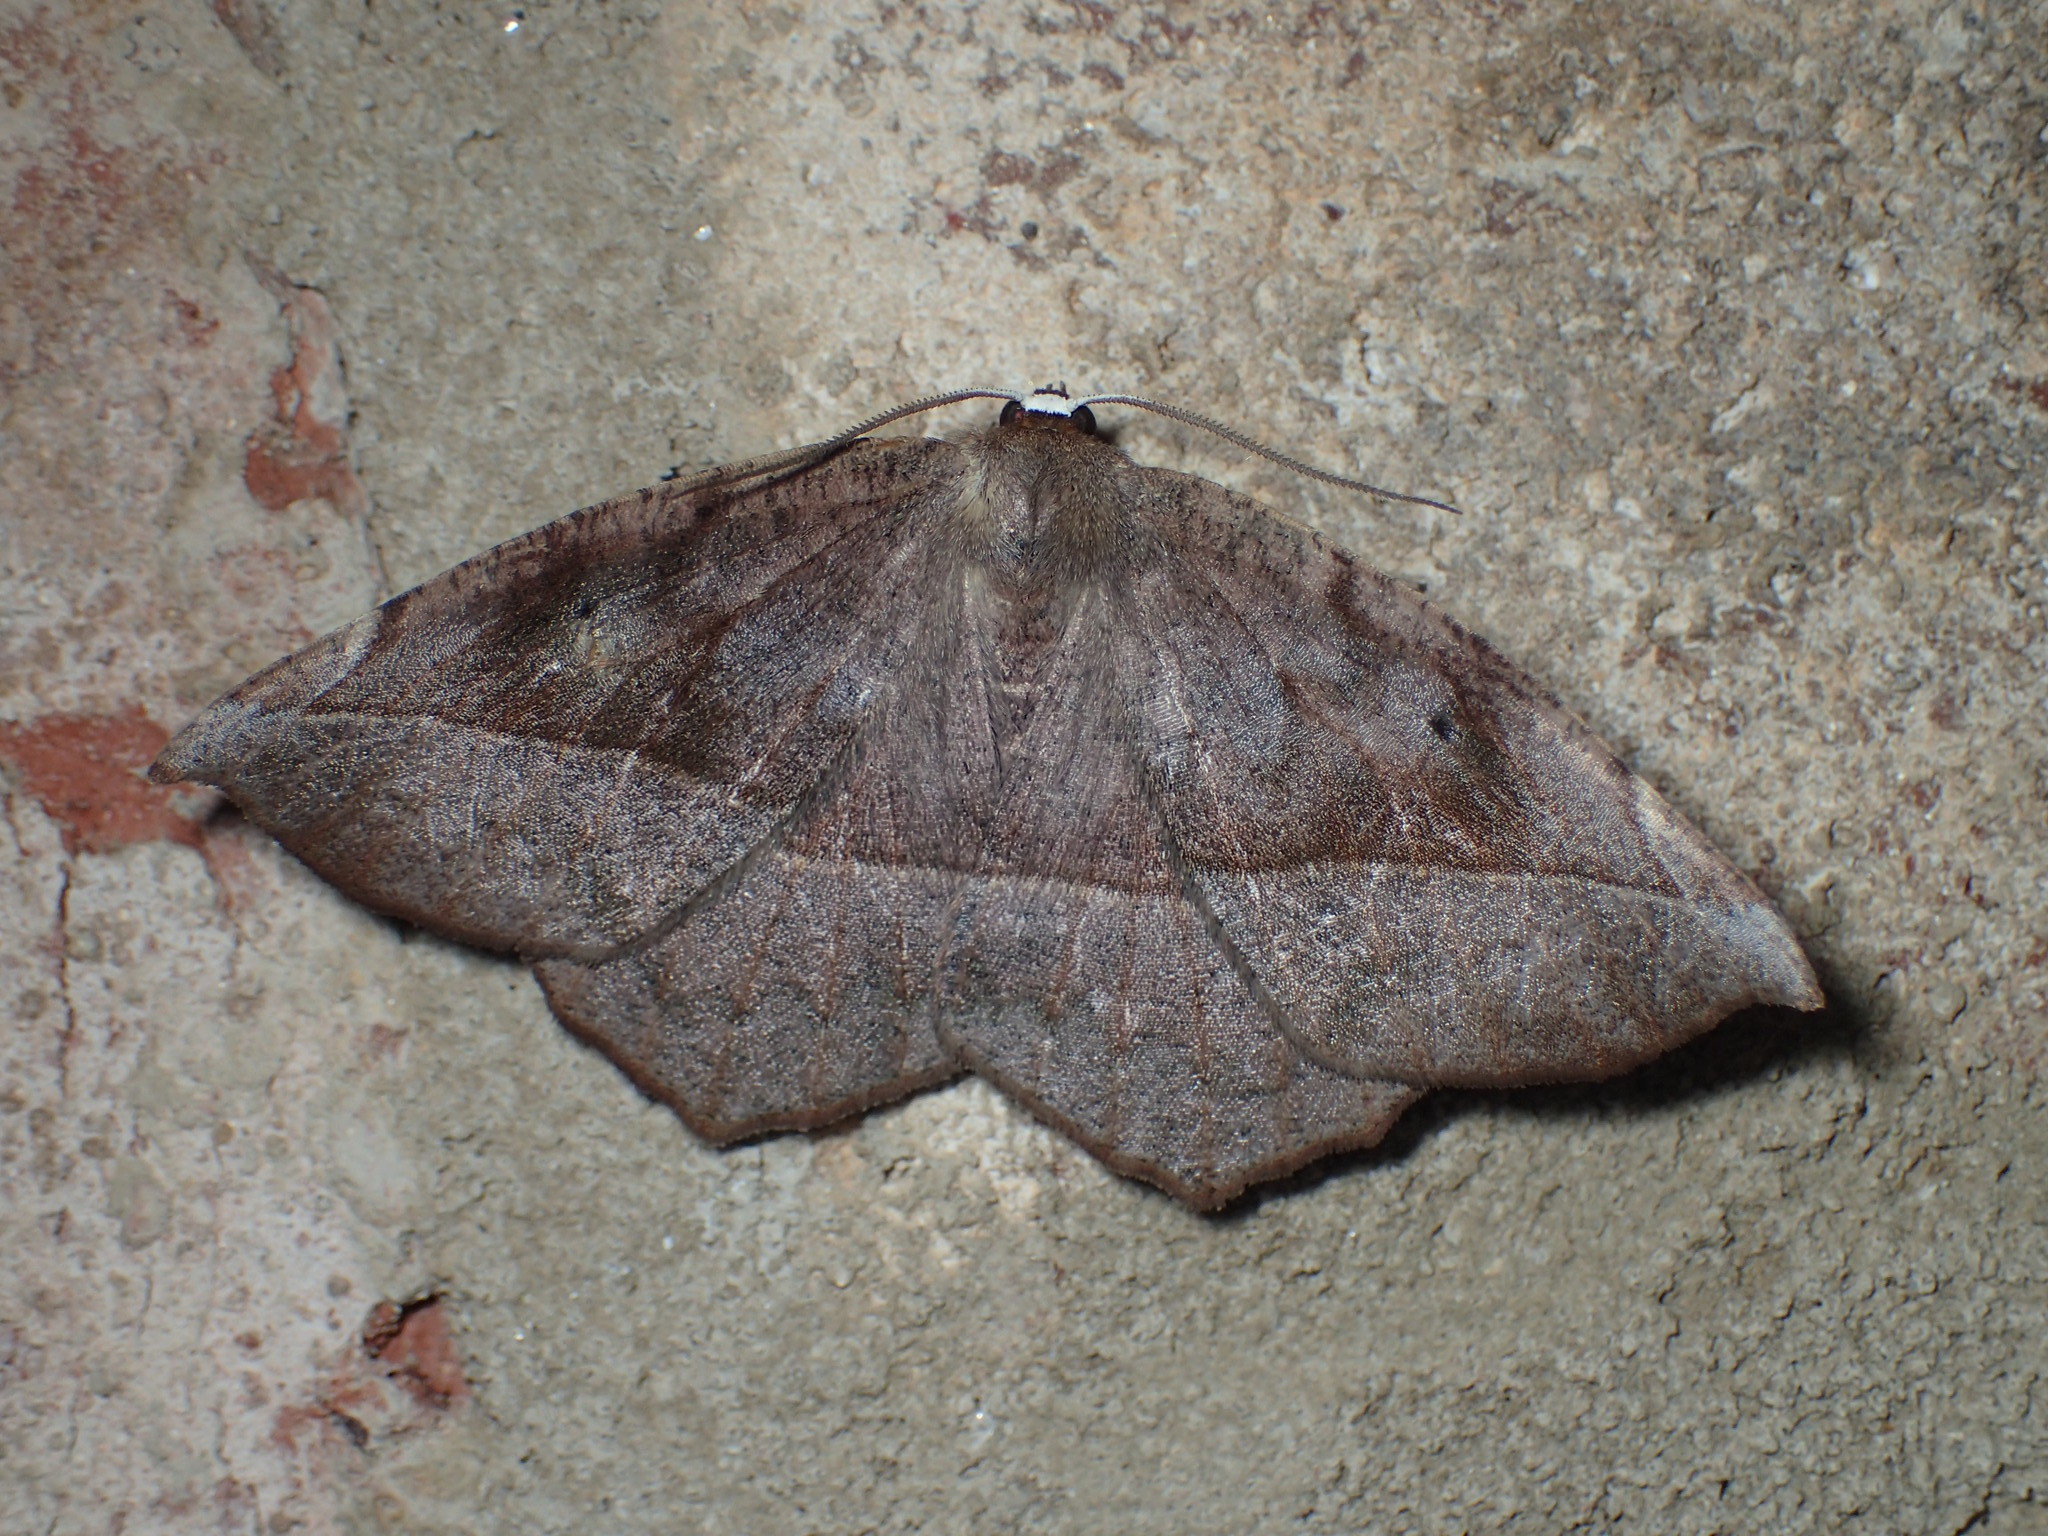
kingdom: Animalia
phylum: Arthropoda
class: Insecta
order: Lepidoptera
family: Geometridae
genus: Eutrapela
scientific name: Eutrapela clemataria
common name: Curved-toothed geometer
